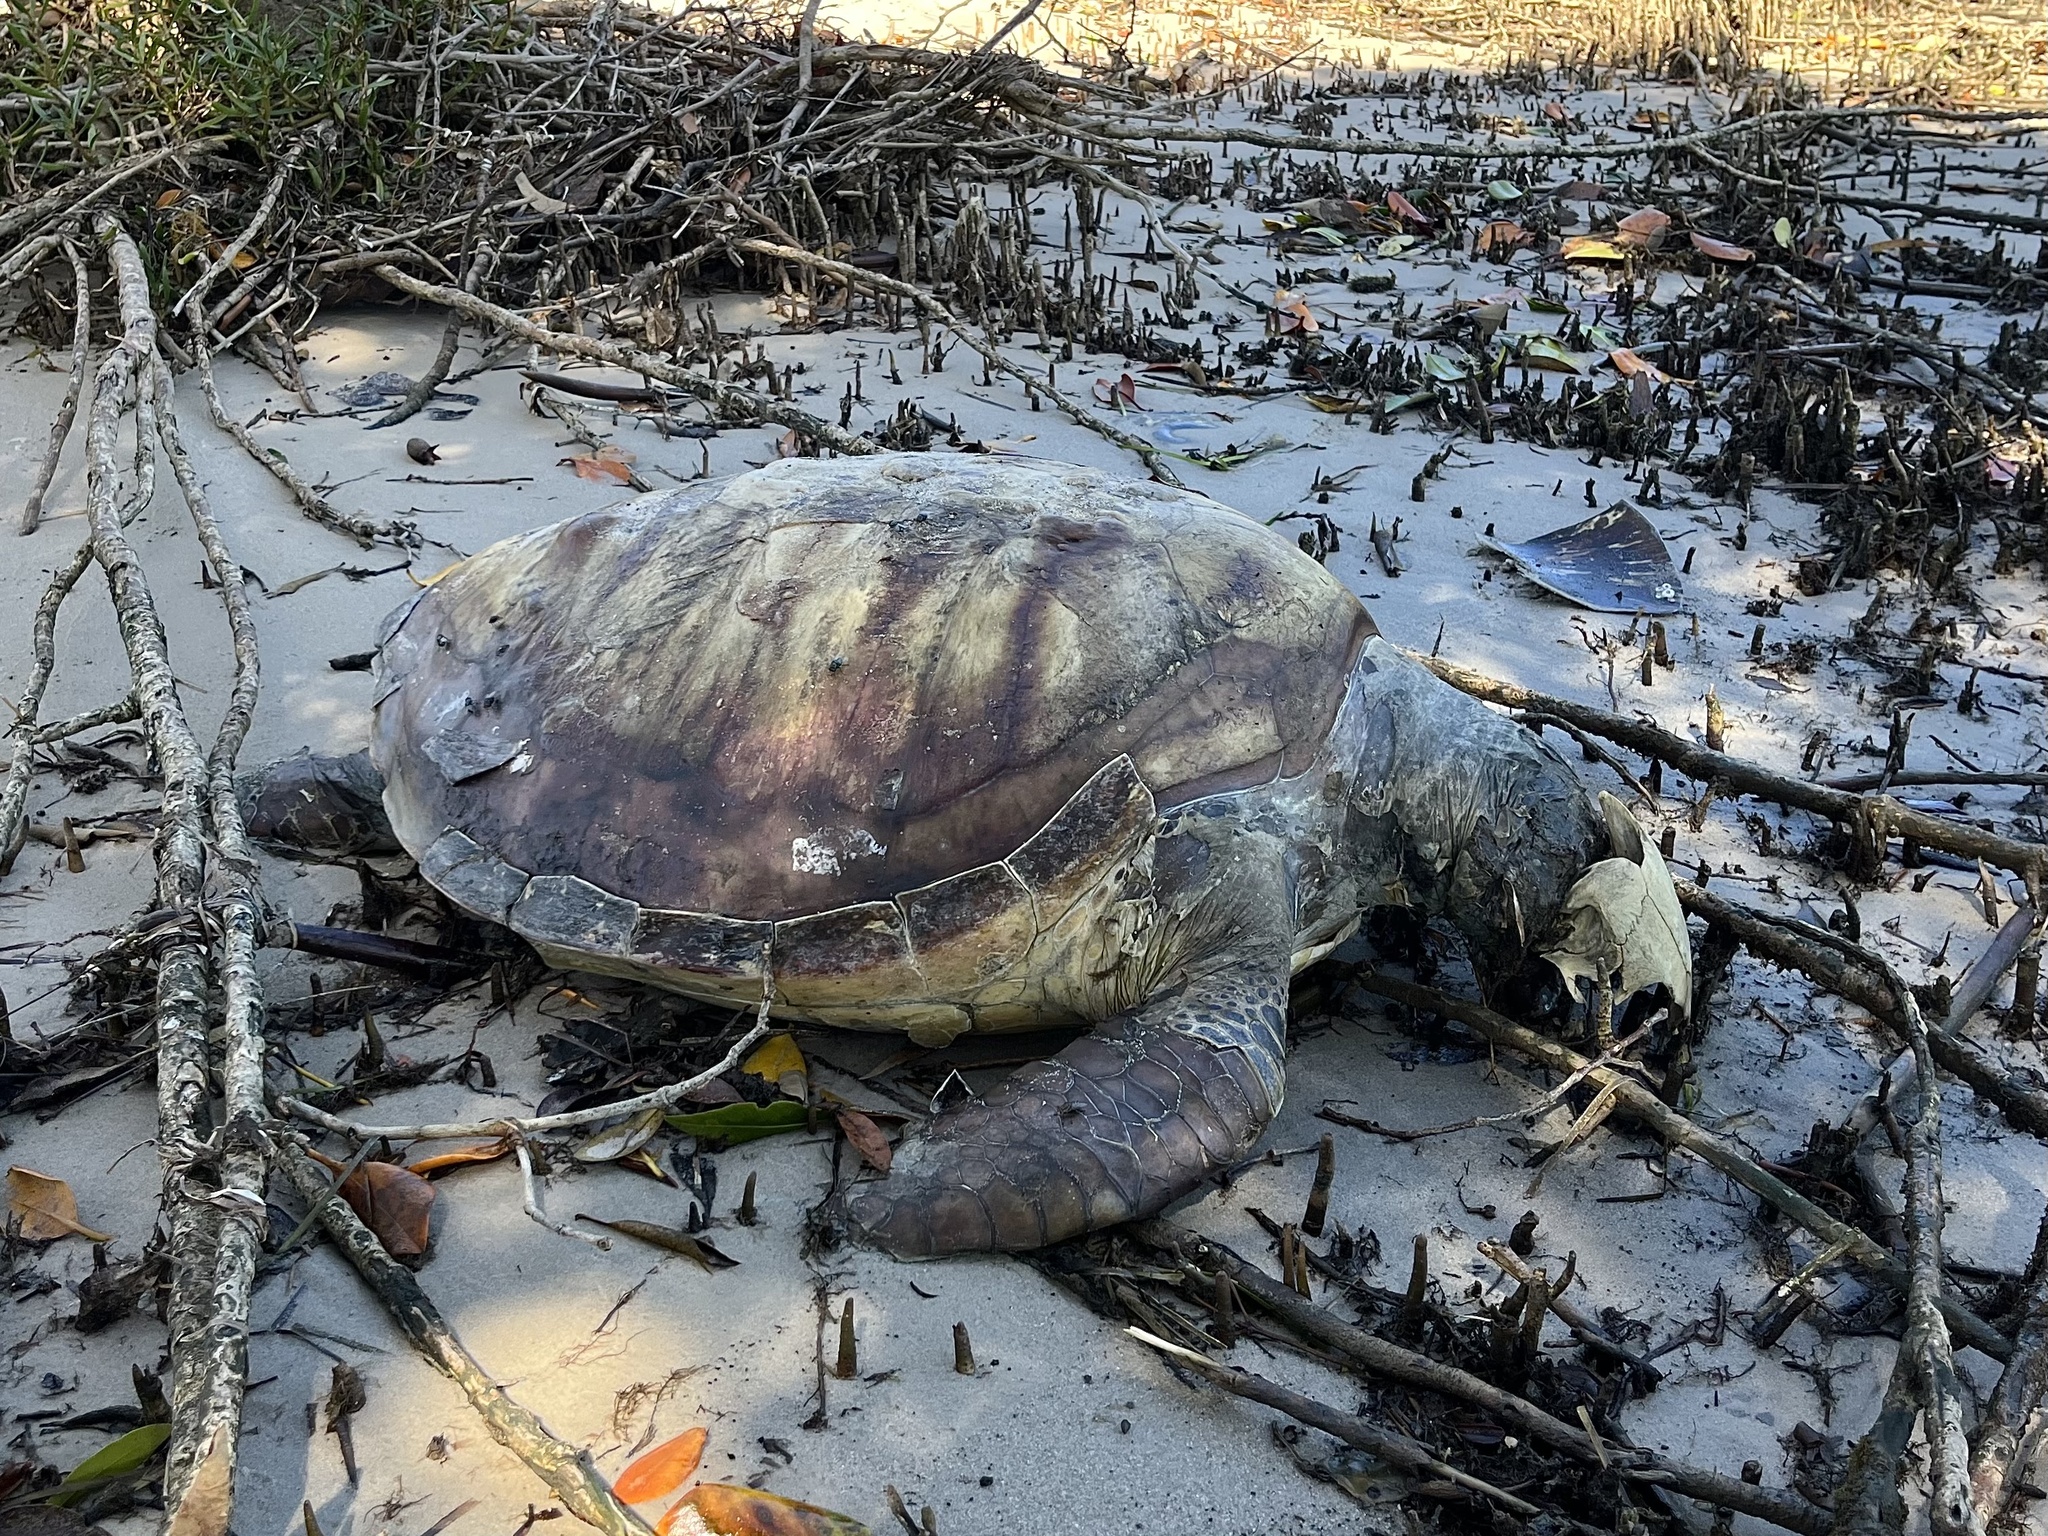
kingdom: Animalia
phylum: Chordata
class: Testudines
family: Cheloniidae
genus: Chelonia
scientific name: Chelonia mydas
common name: Green turtle
